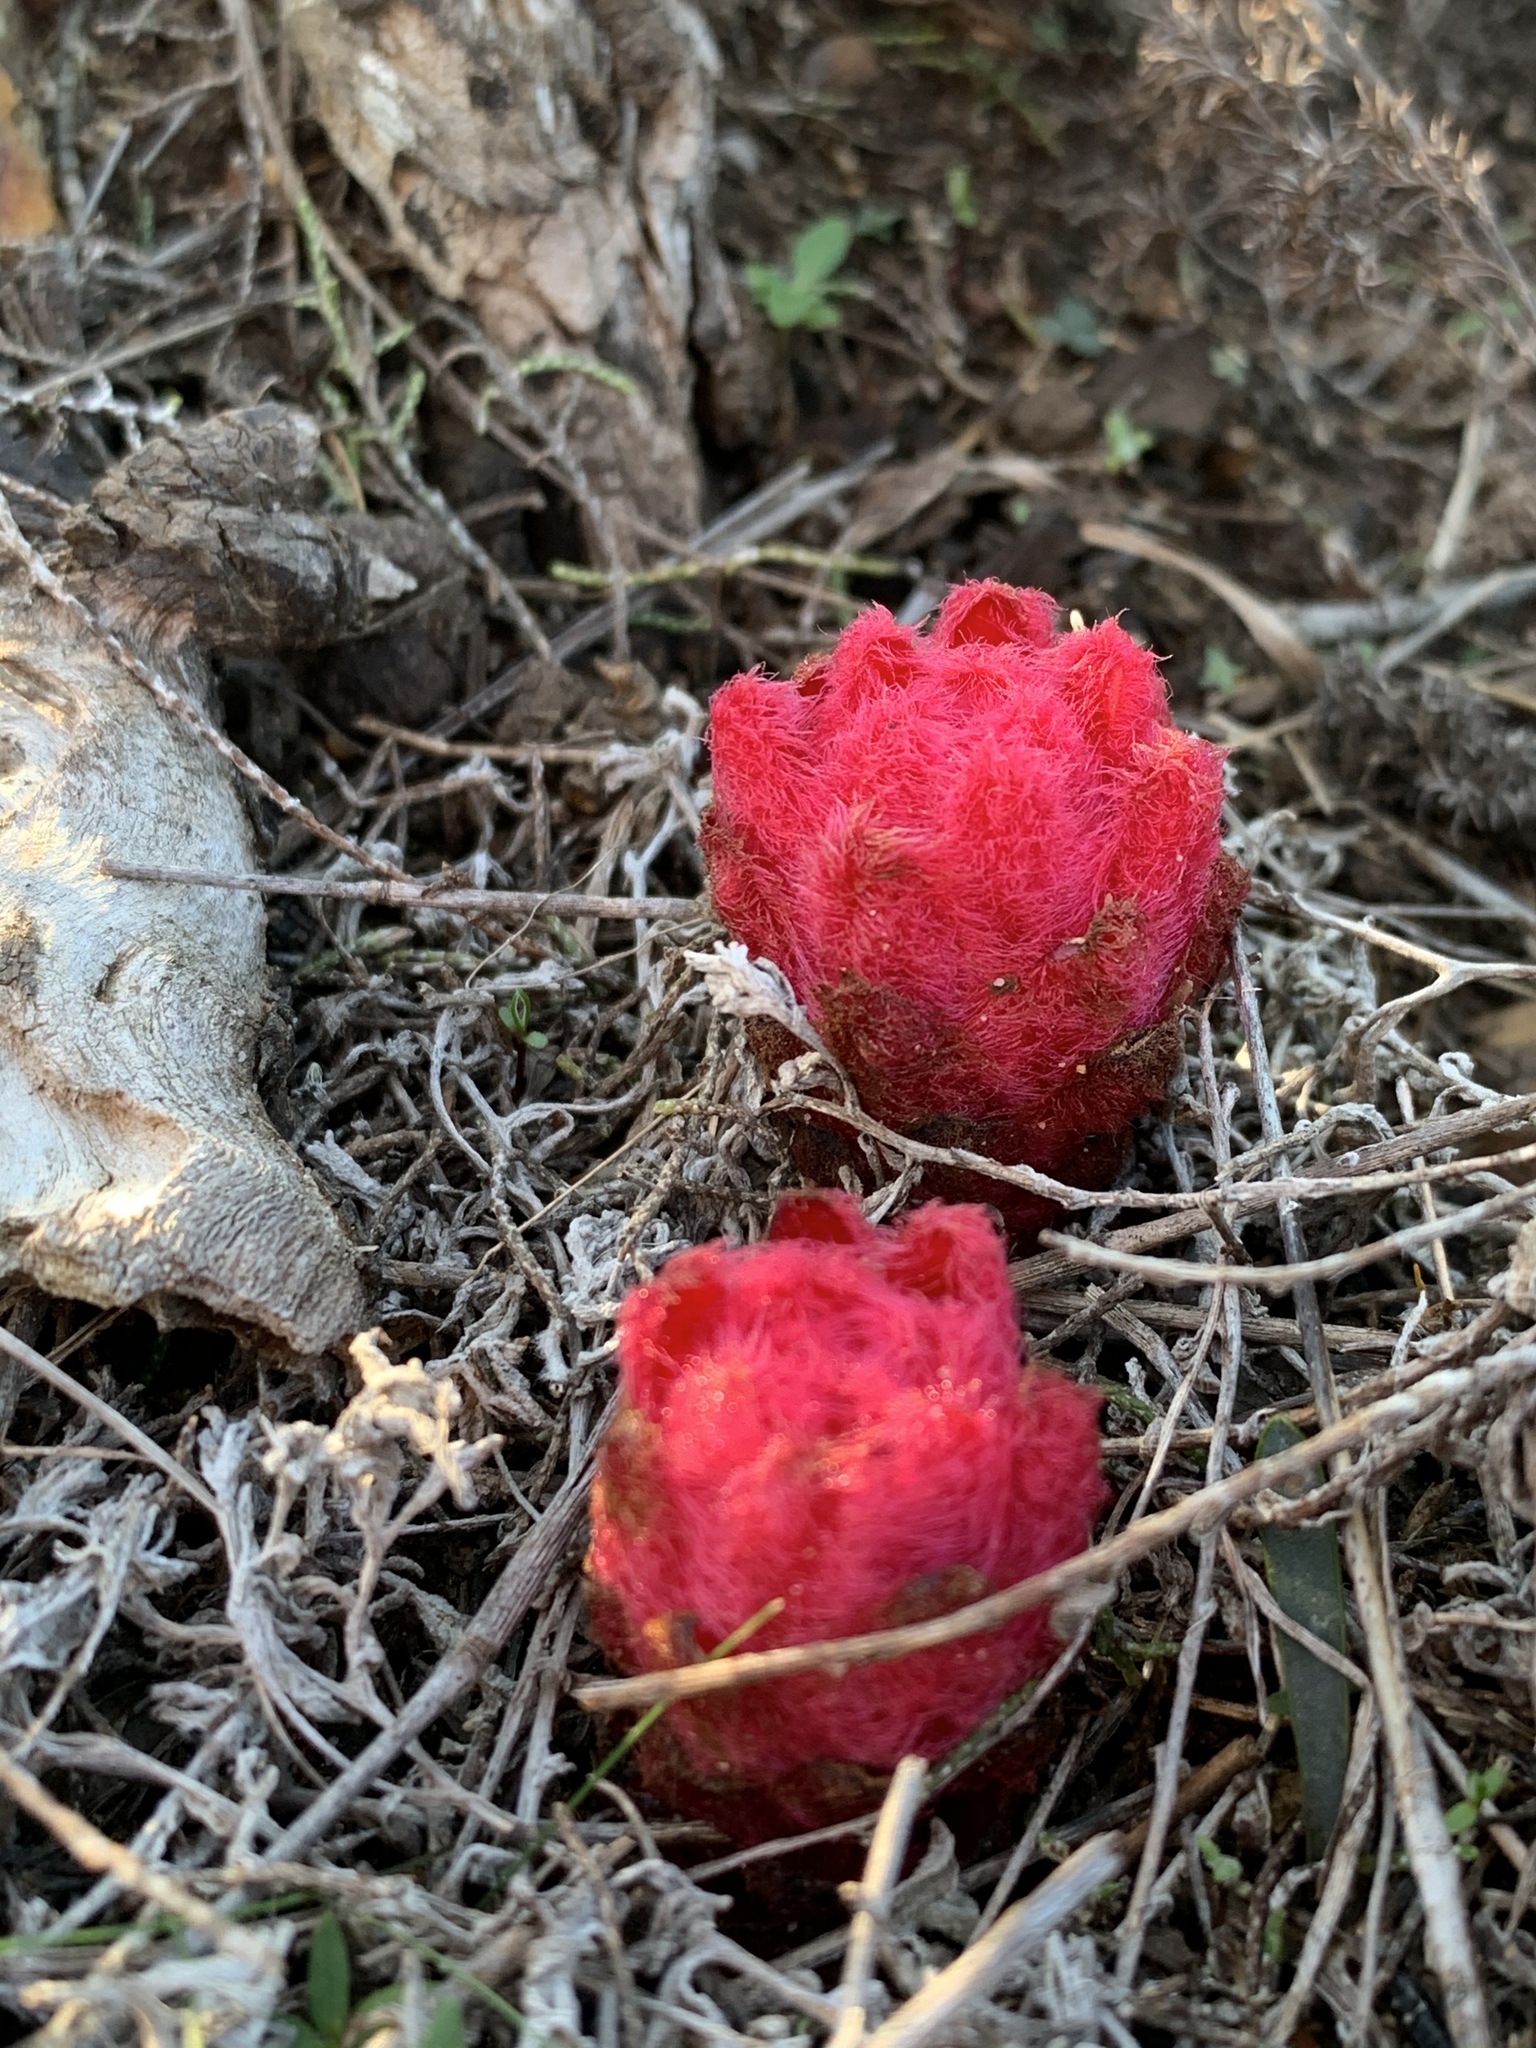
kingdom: Plantae
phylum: Tracheophyta
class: Magnoliopsida
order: Lamiales
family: Orobanchaceae
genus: Hyobanche
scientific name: Hyobanche sanguinea
